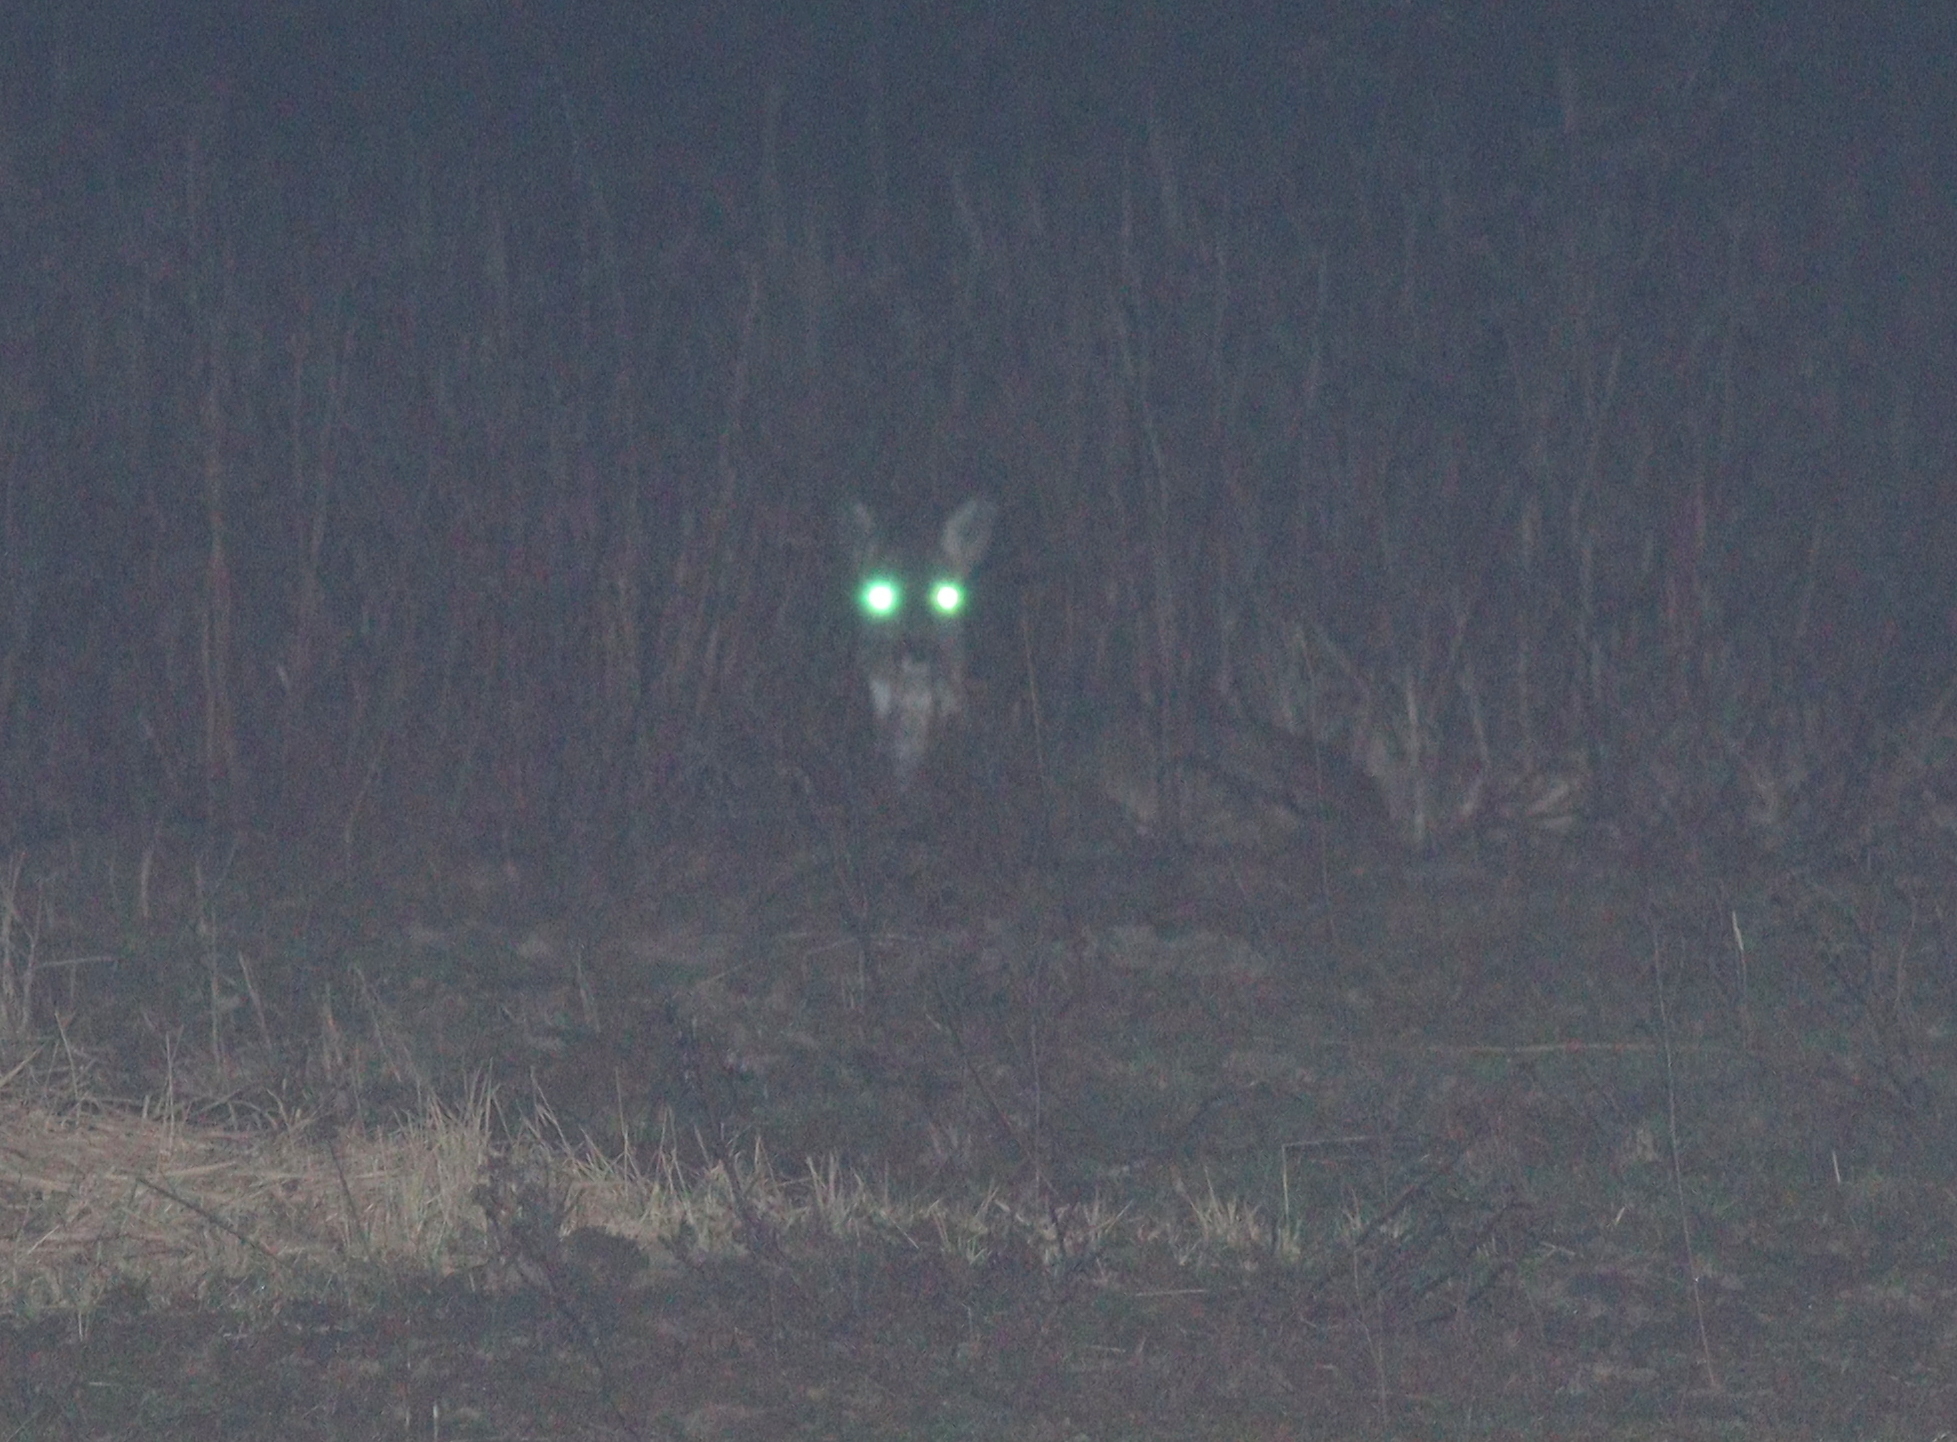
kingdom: Animalia
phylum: Chordata
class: Mammalia
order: Artiodactyla
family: Cervidae
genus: Capreolus
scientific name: Capreolus capreolus
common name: Western roe deer
